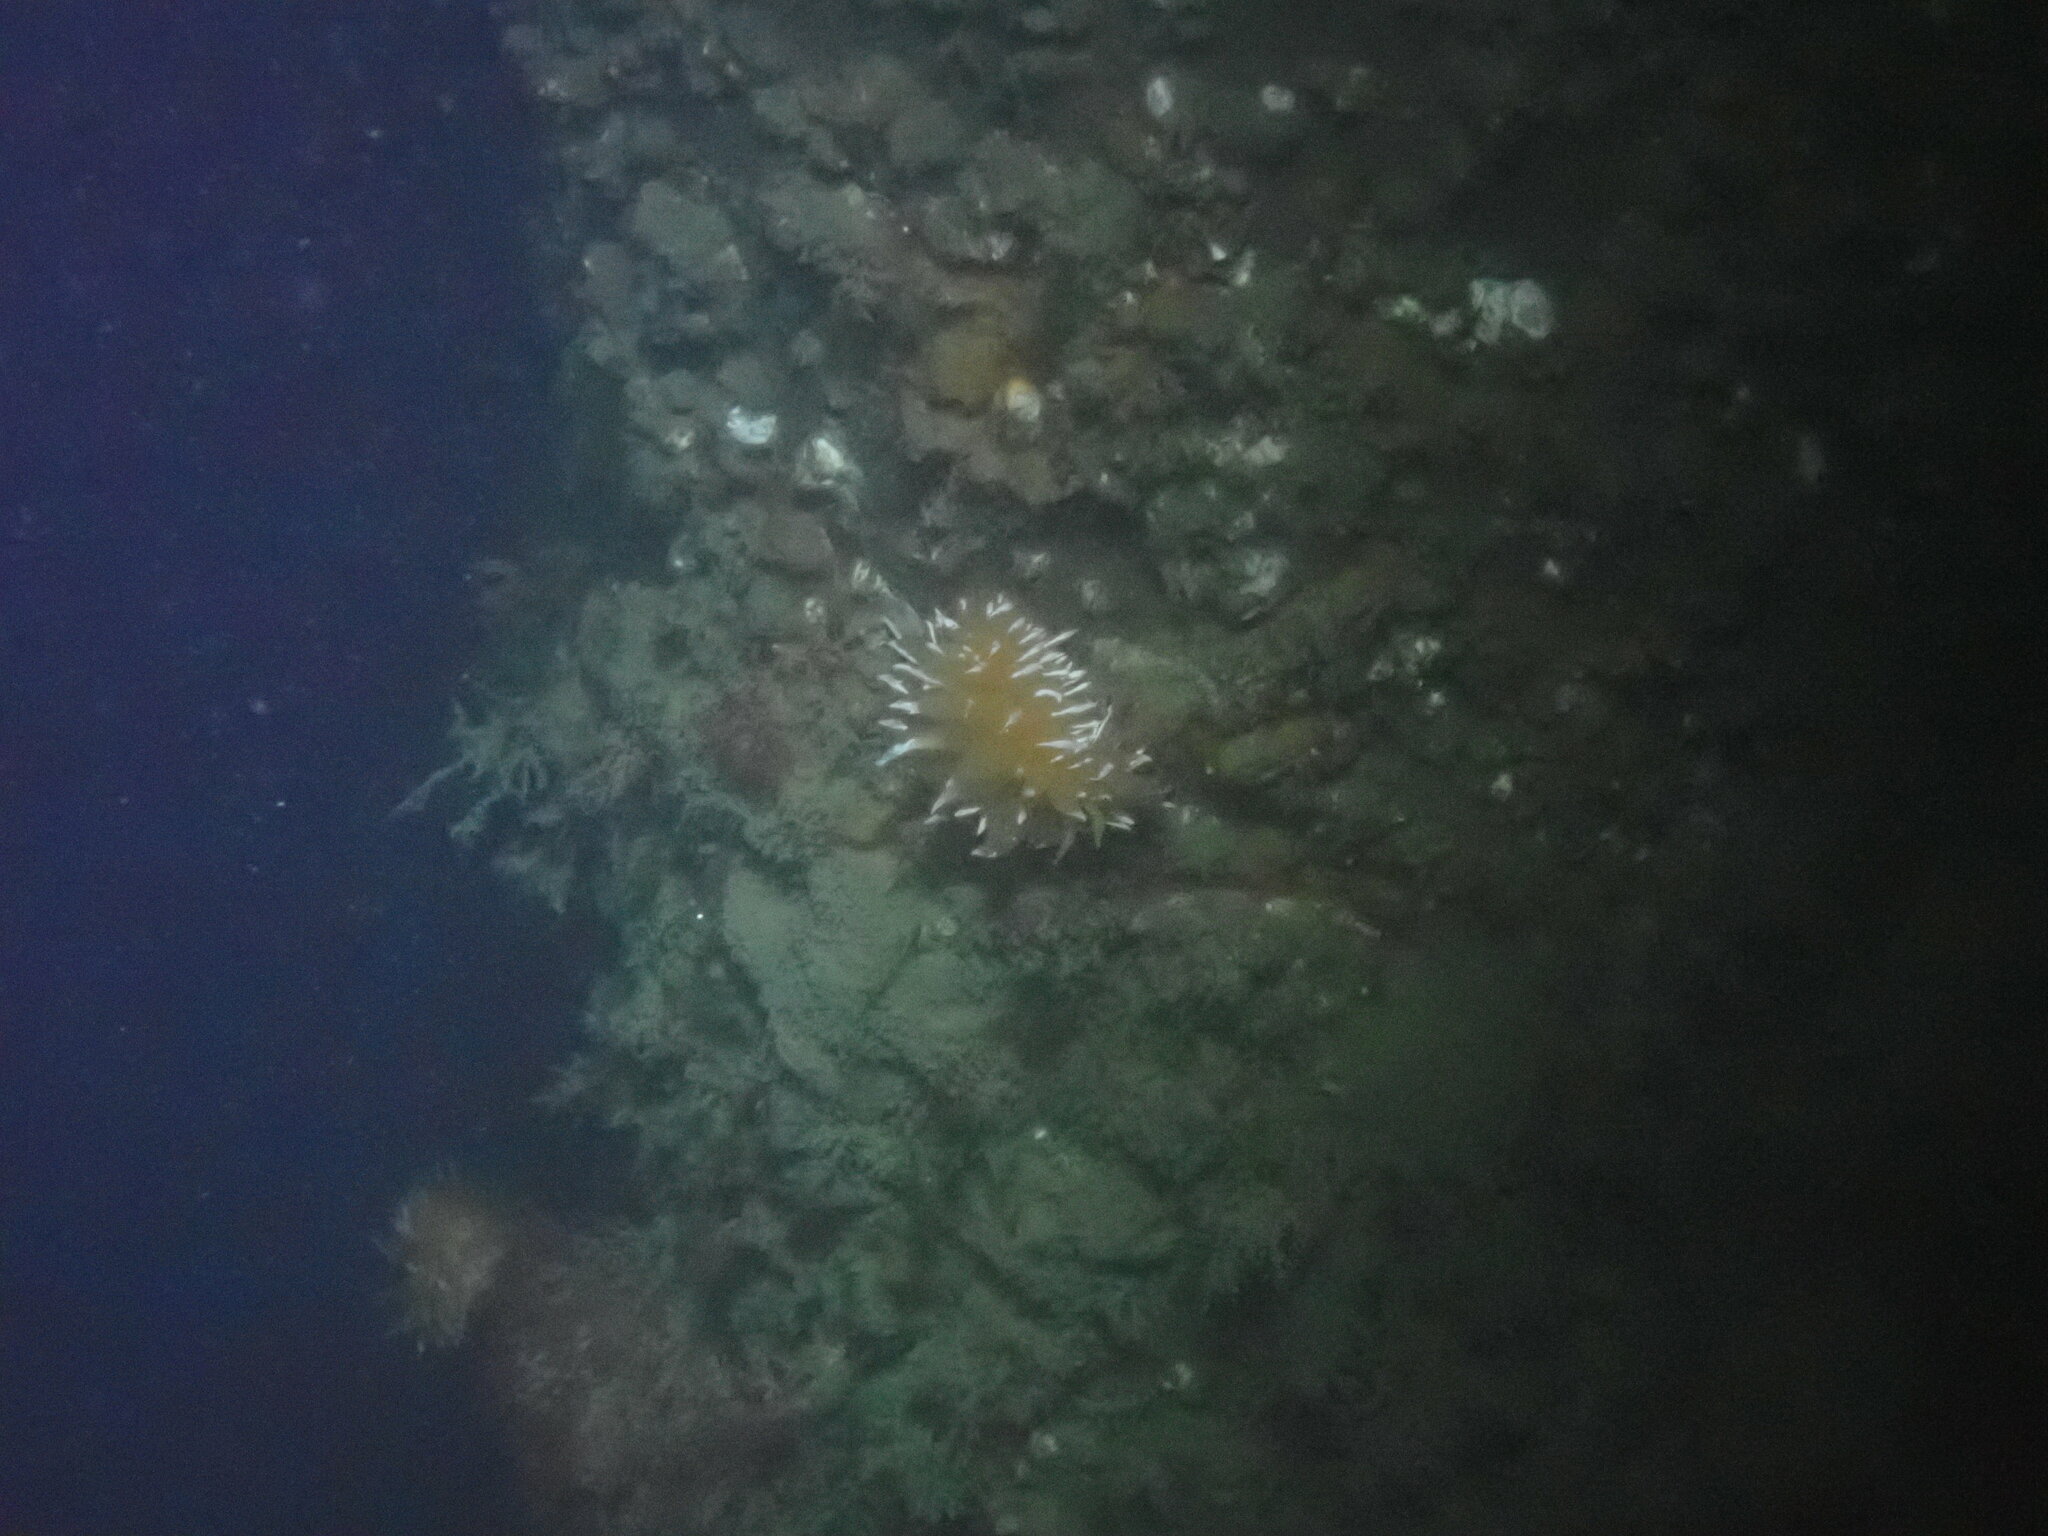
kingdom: Animalia
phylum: Mollusca
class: Gastropoda
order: Nudibranchia
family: Dironidae
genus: Dirona
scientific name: Dirona pellucida
